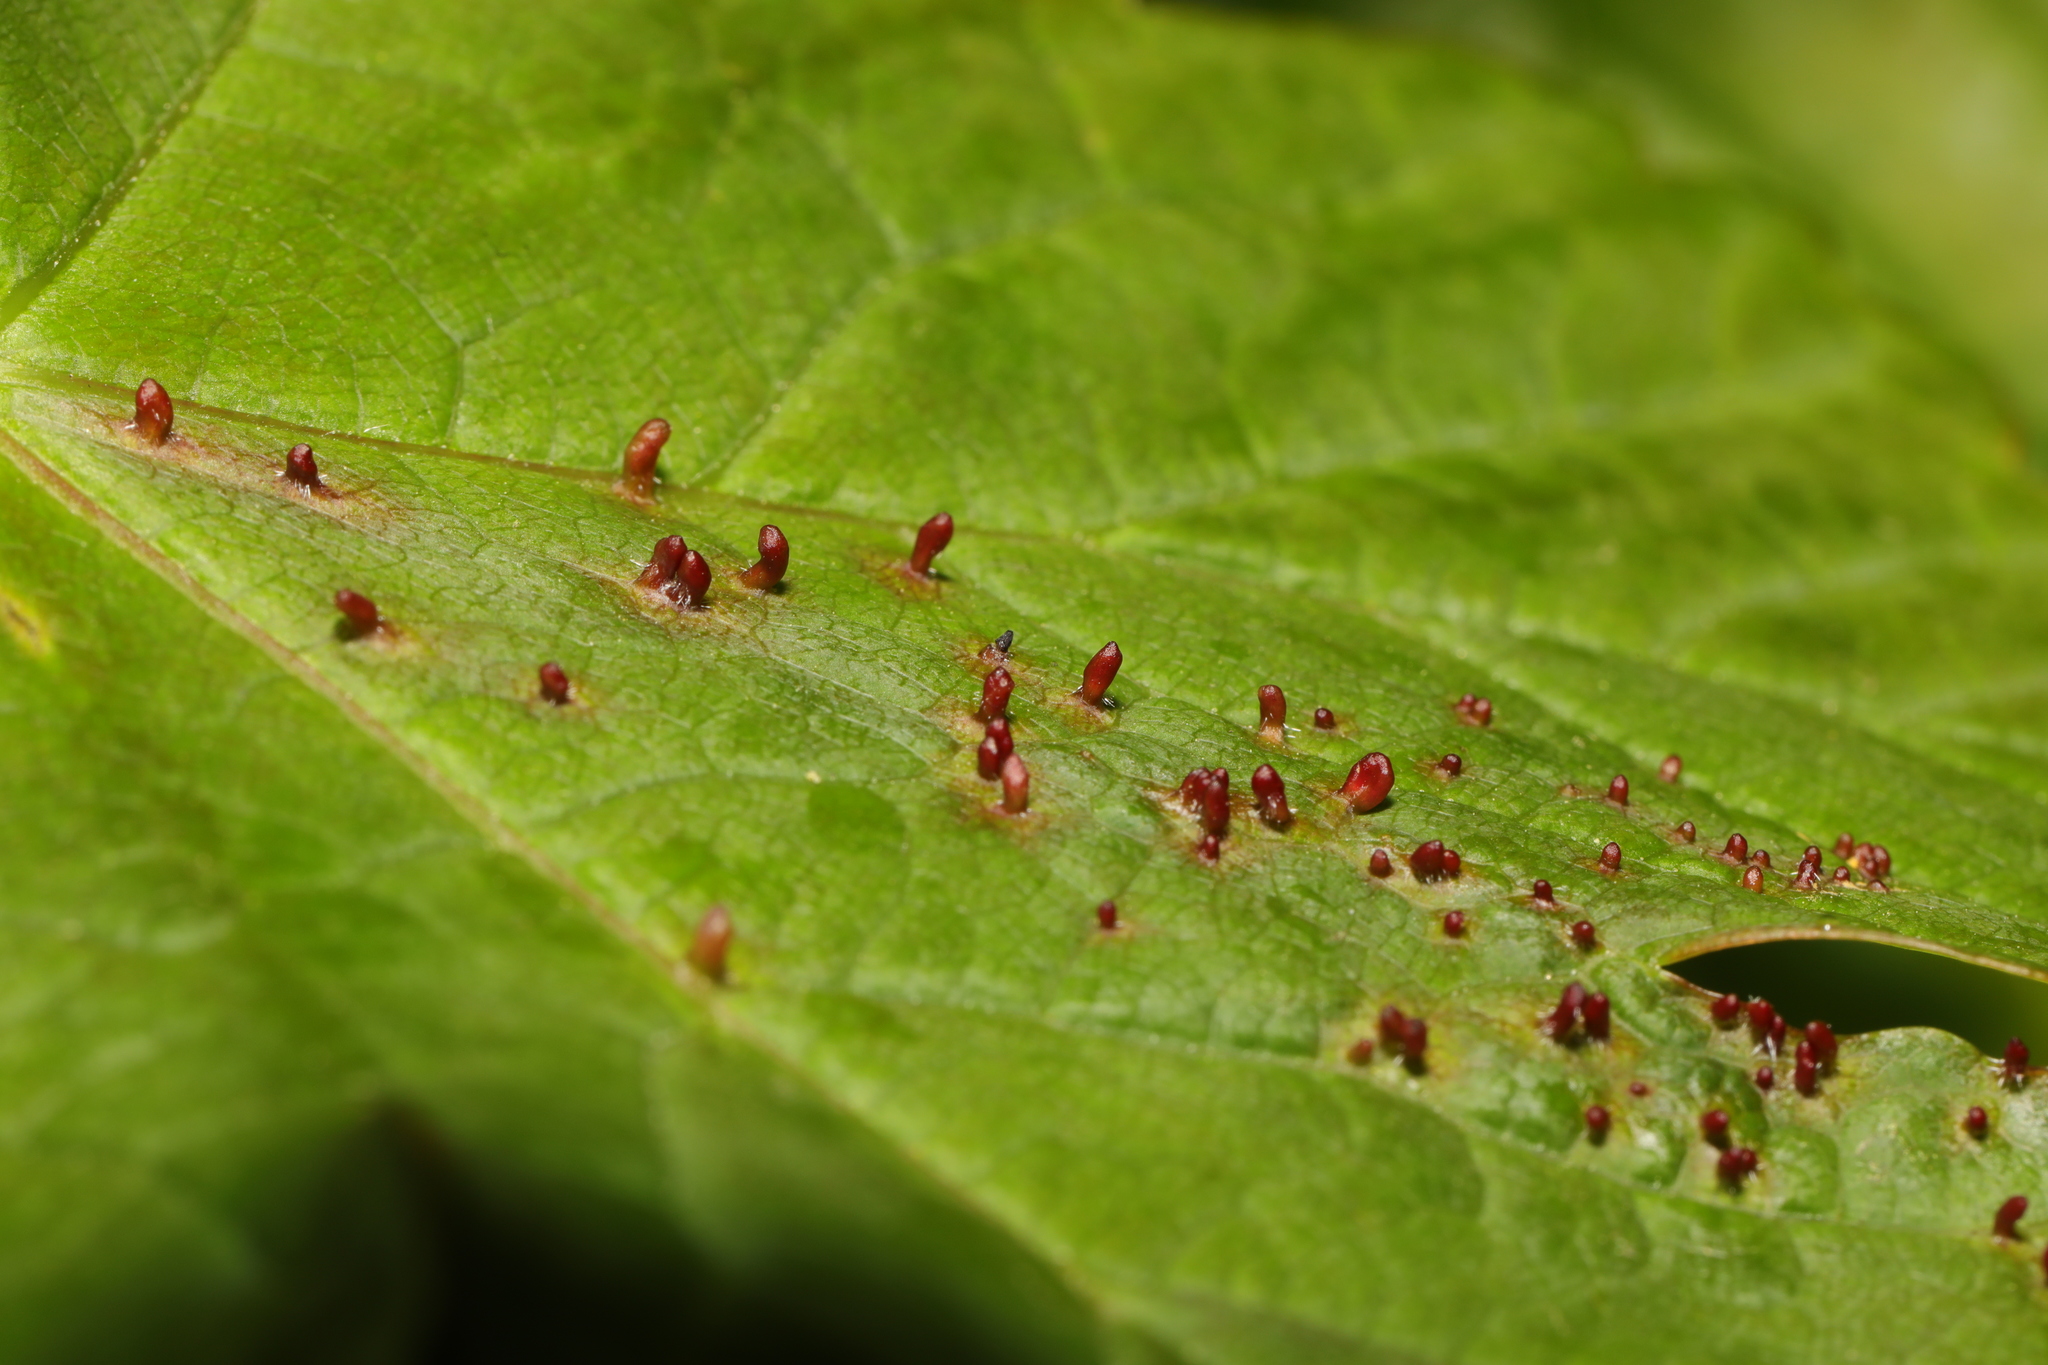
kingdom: Animalia
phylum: Arthropoda
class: Arachnida
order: Trombidiformes
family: Eriophyidae
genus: Aceria
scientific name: Aceria cephaloneus
